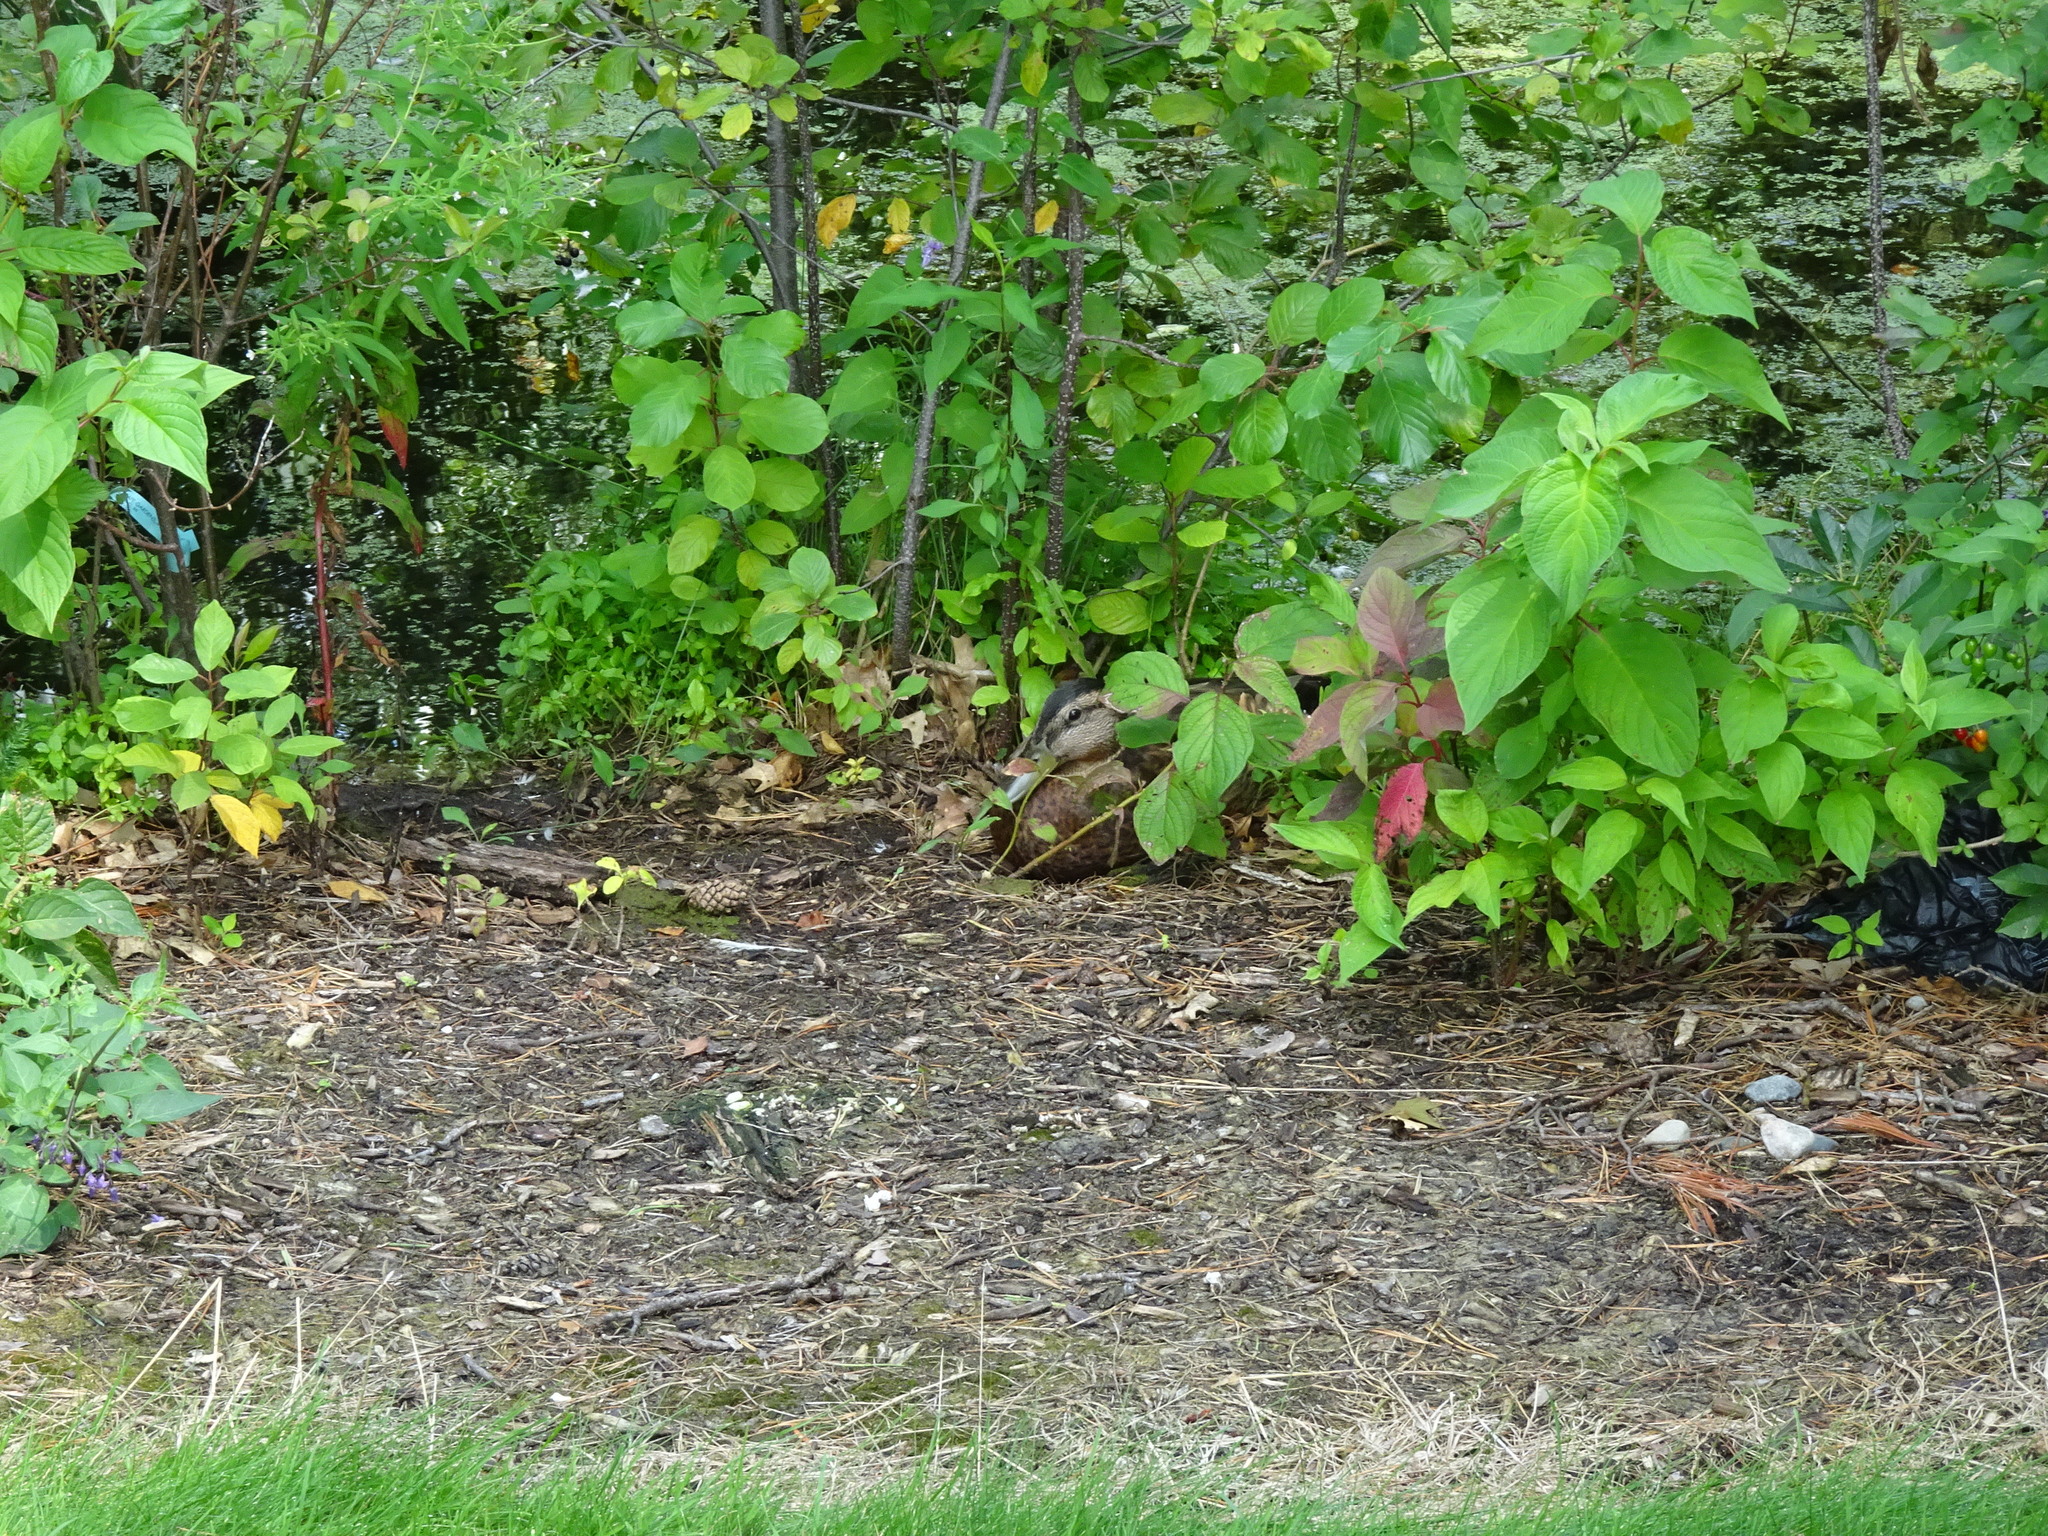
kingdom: Animalia
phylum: Chordata
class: Aves
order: Anseriformes
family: Anatidae
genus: Anas
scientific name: Anas platyrhynchos
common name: Mallard
